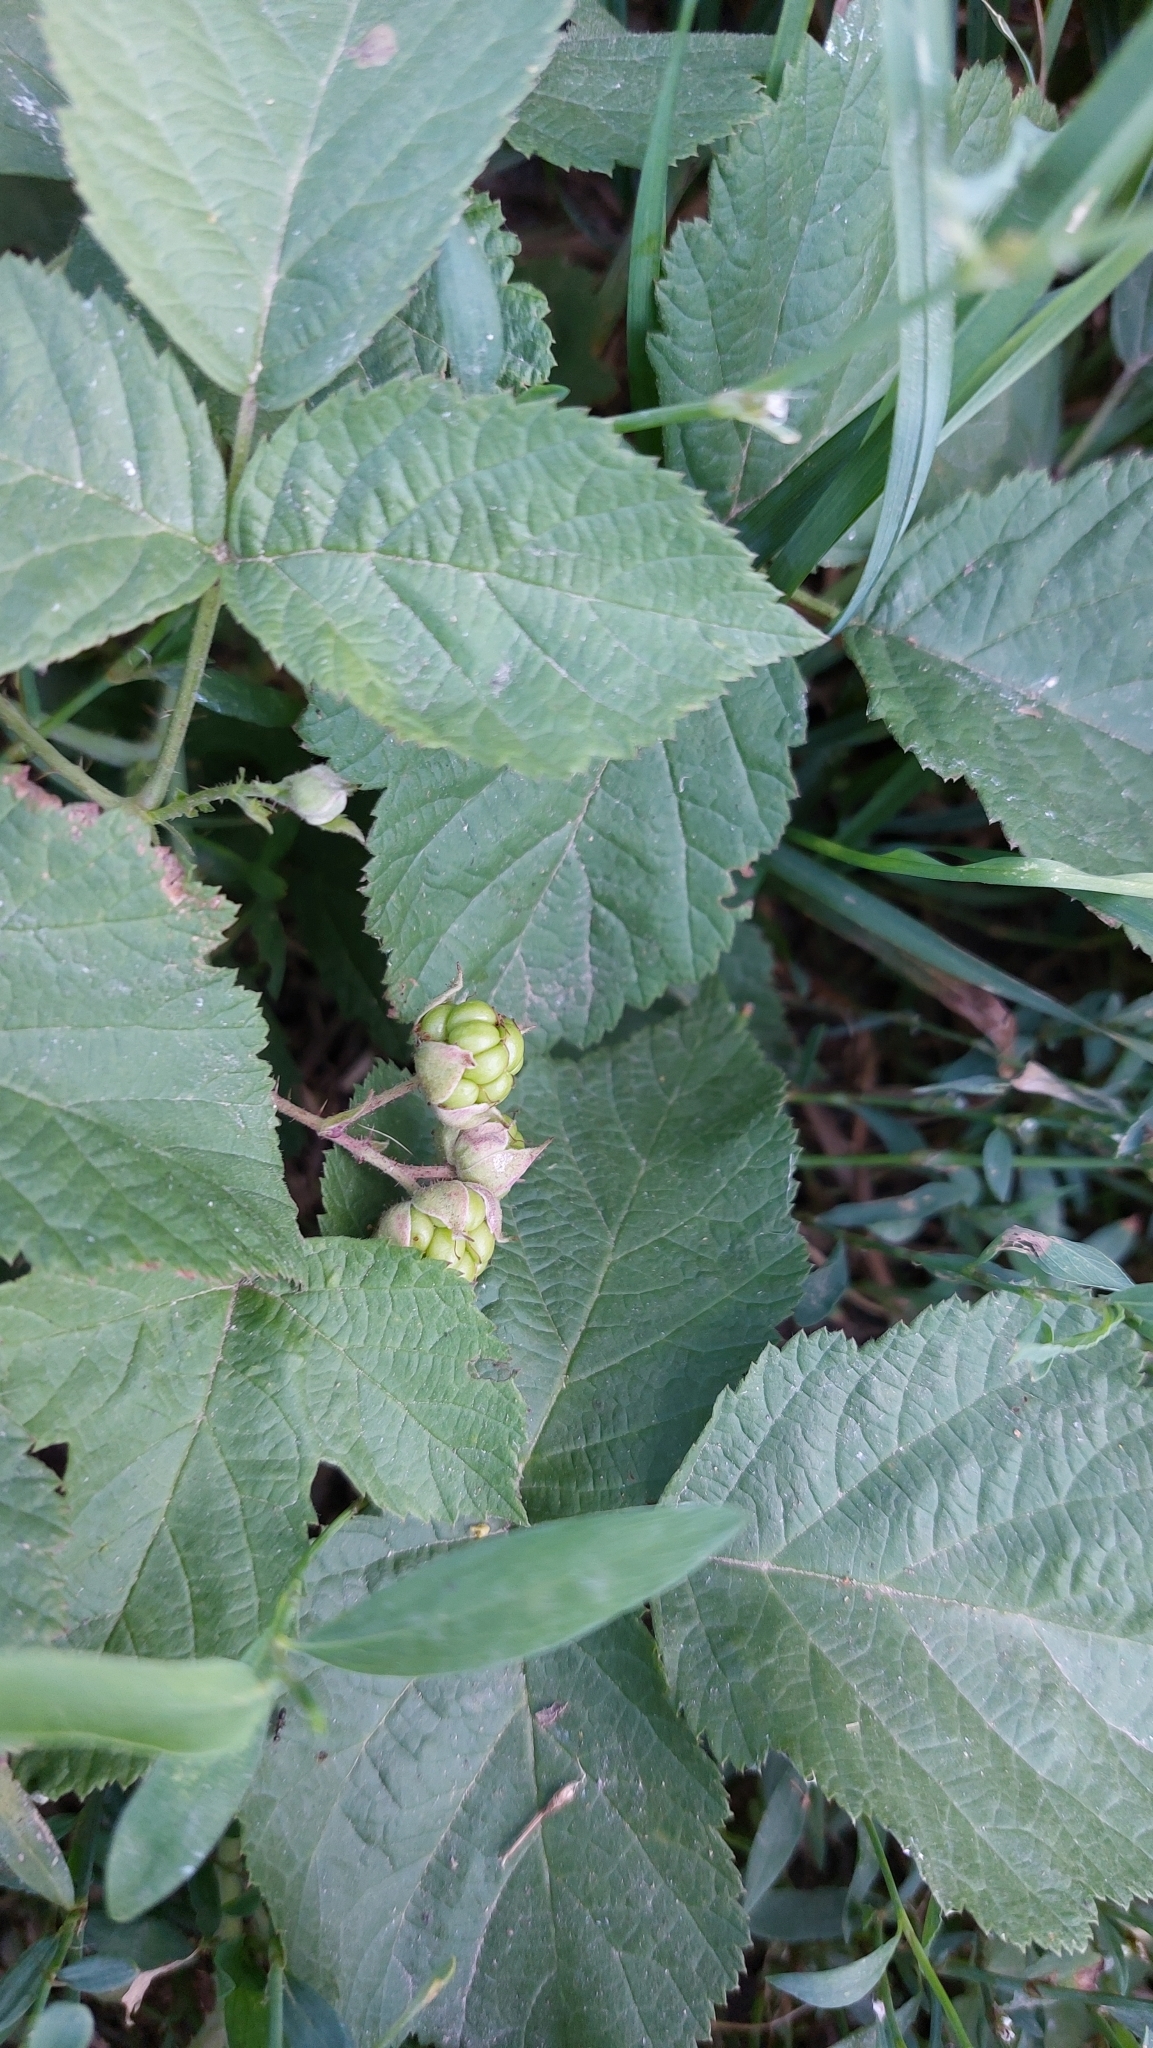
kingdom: Plantae
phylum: Tracheophyta
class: Magnoliopsida
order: Rosales
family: Rosaceae
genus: Rubus
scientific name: Rubus caesius
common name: Dewberry
